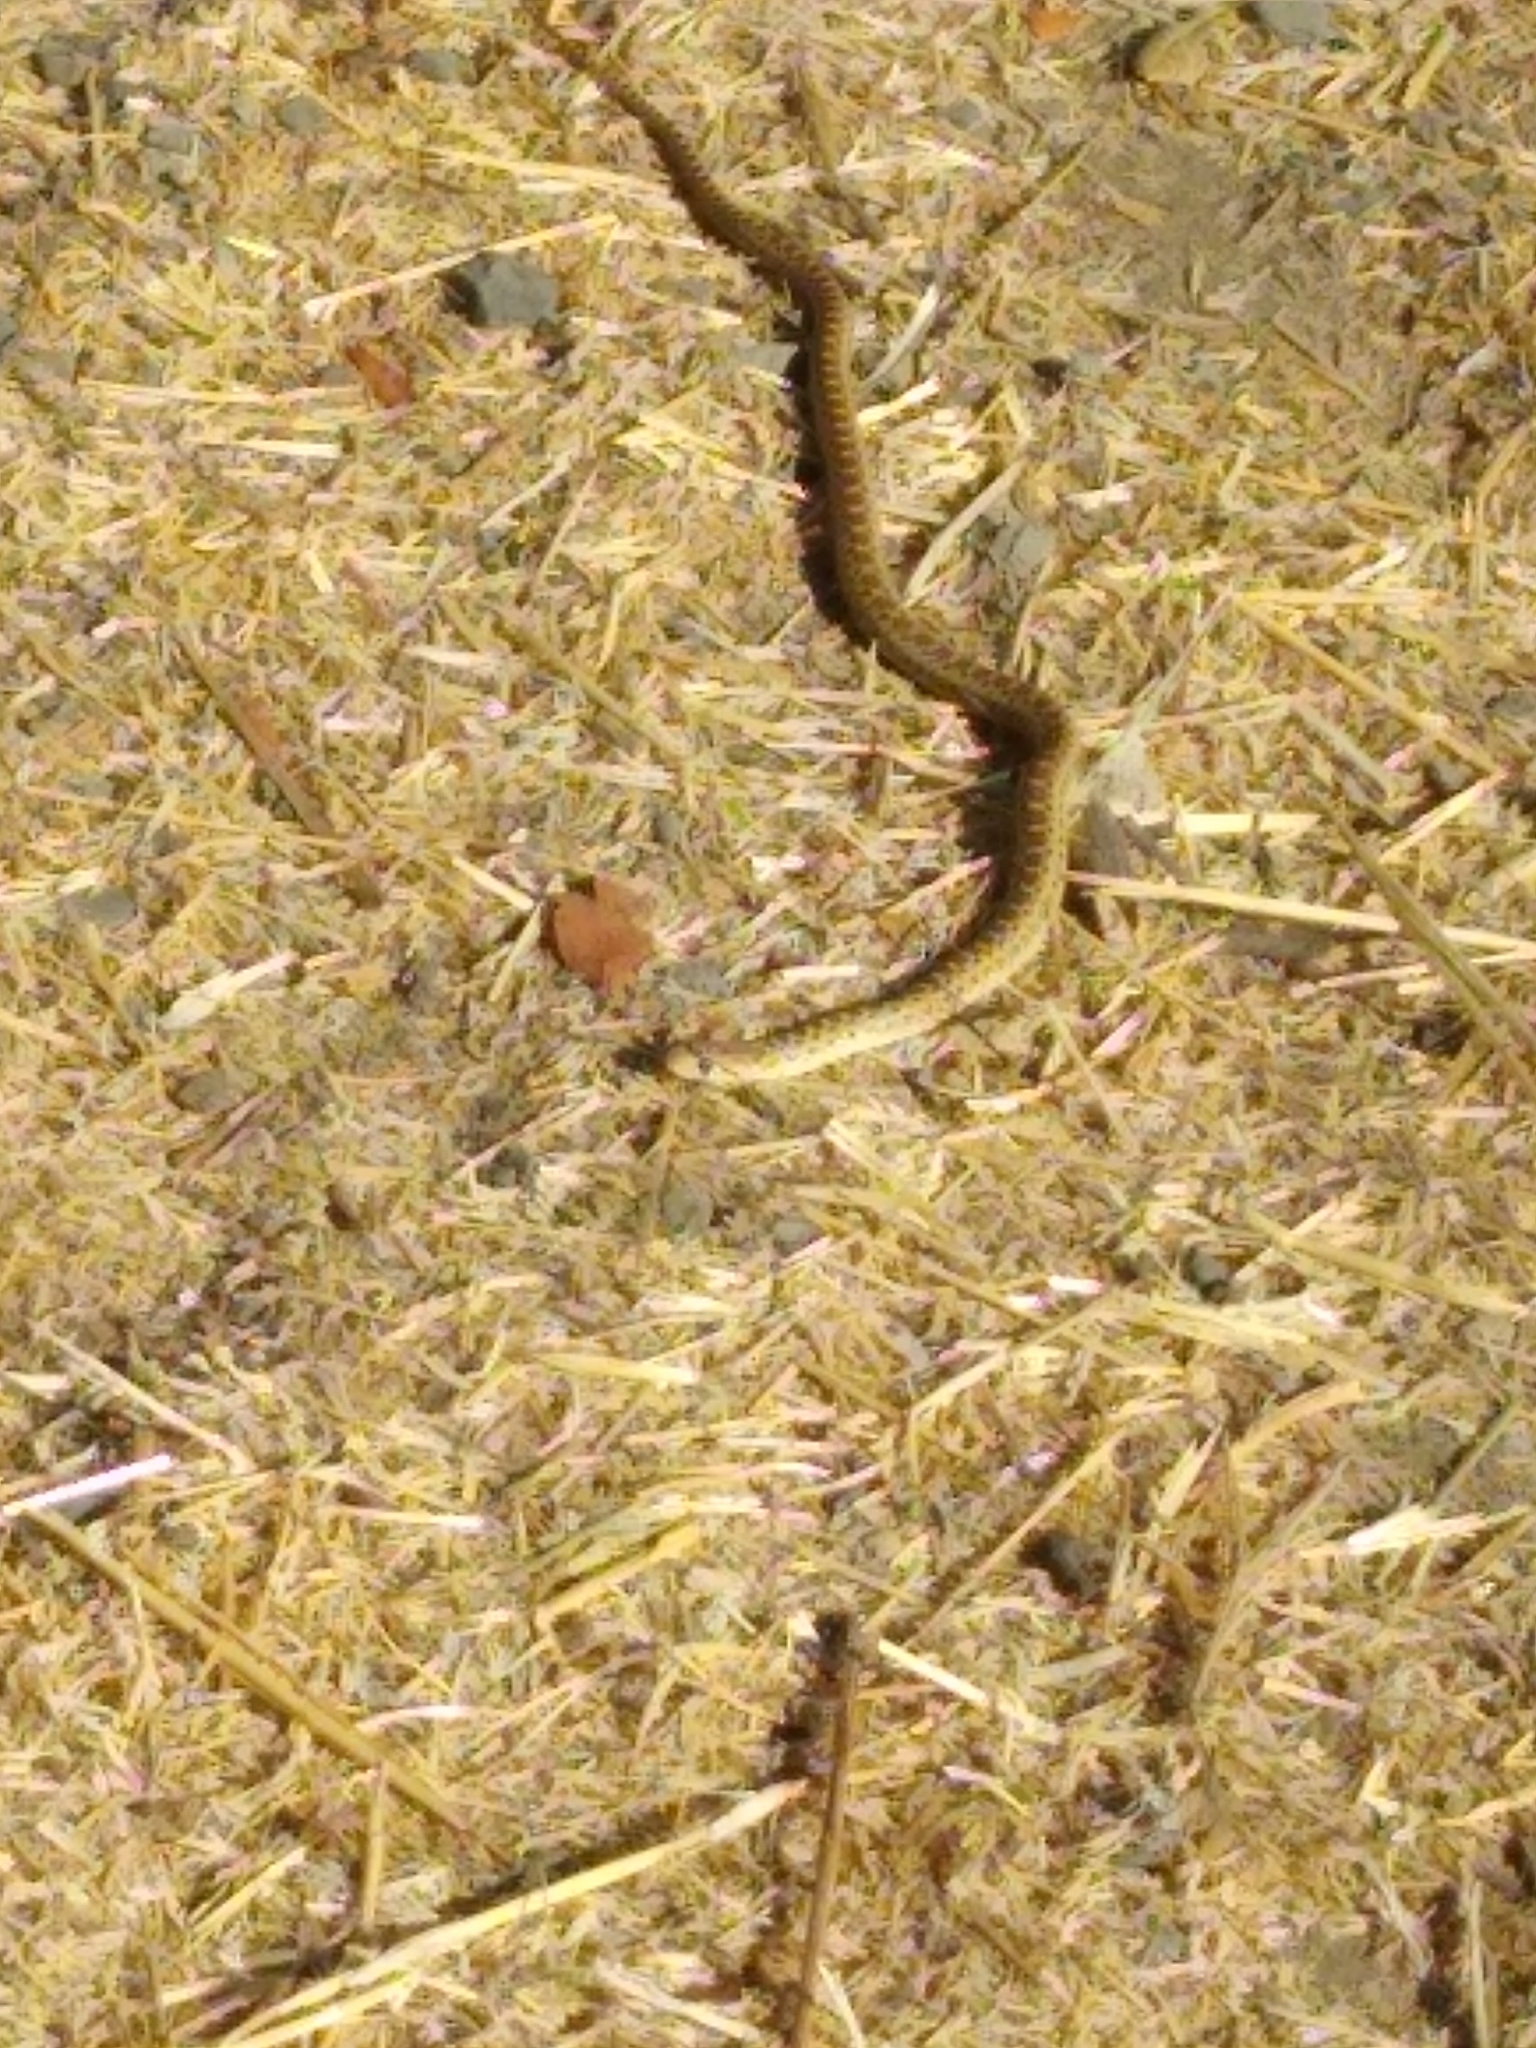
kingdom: Animalia
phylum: Chordata
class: Squamata
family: Colubridae
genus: Pituophis
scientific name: Pituophis catenifer
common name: Gopher snake
